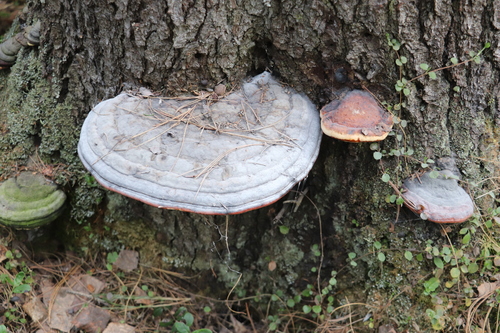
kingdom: Fungi
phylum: Basidiomycota
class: Agaricomycetes
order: Polyporales
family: Fomitopsidaceae
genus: Fomitopsis
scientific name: Fomitopsis pinicola
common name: Red-belted bracket
